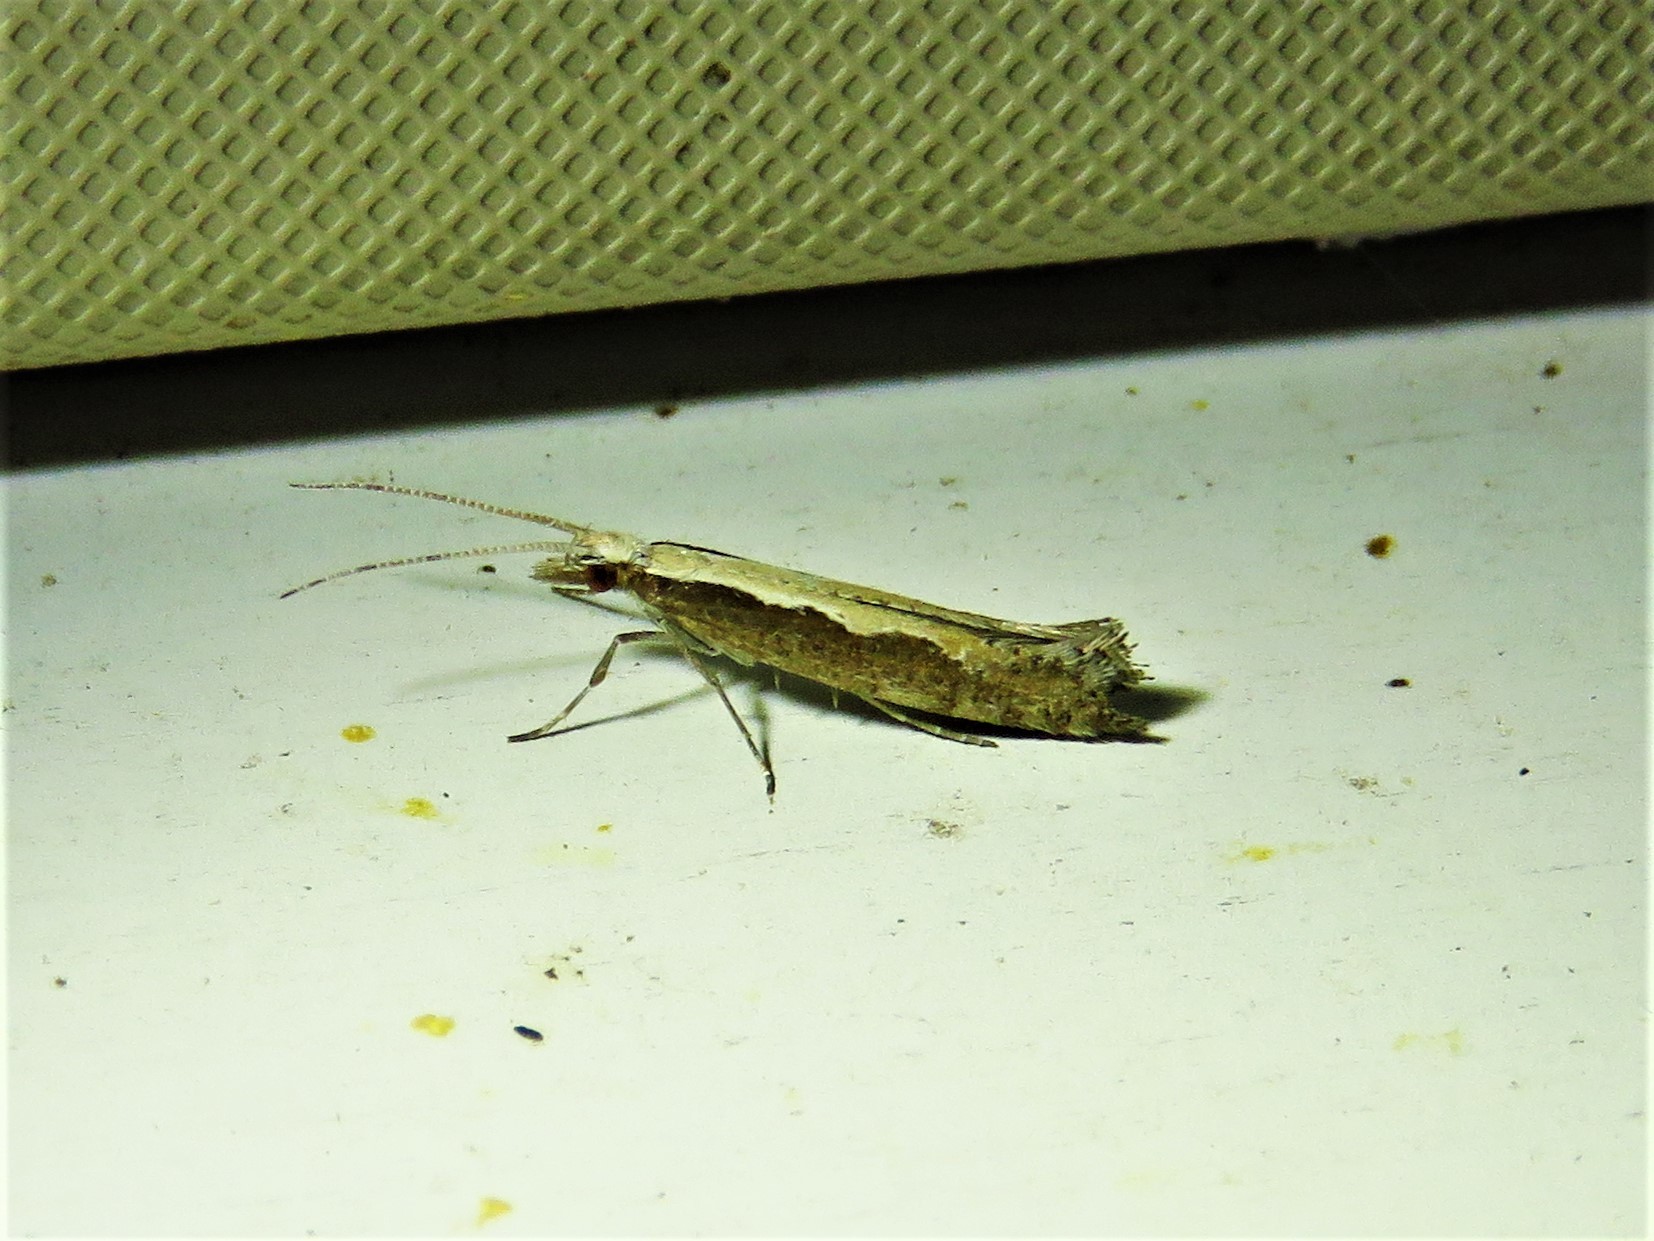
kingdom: Animalia
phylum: Arthropoda
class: Insecta
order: Lepidoptera
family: Plutellidae
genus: Plutella
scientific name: Plutella xylostella
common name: Diamond-back moth
